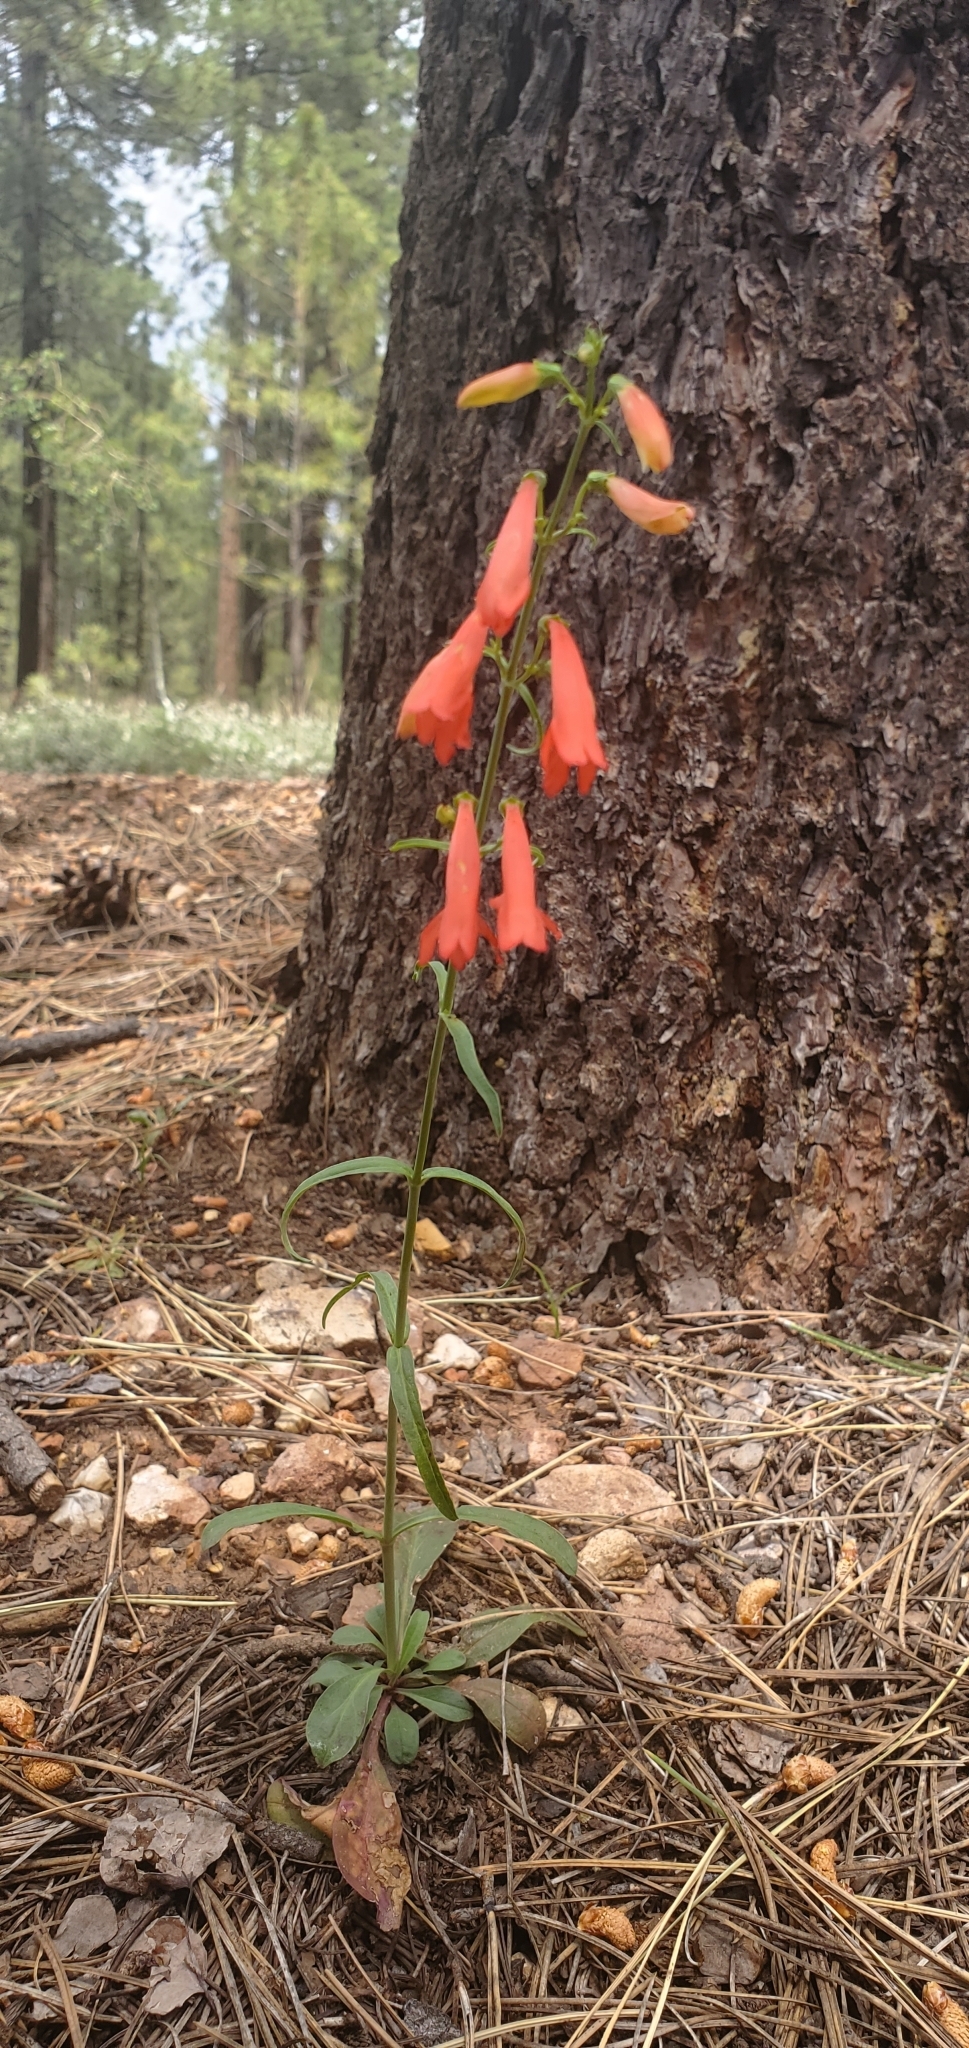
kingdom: Plantae
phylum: Tracheophyta
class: Magnoliopsida
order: Lamiales
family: Plantaginaceae
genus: Penstemon
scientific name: Penstemon barbatus
